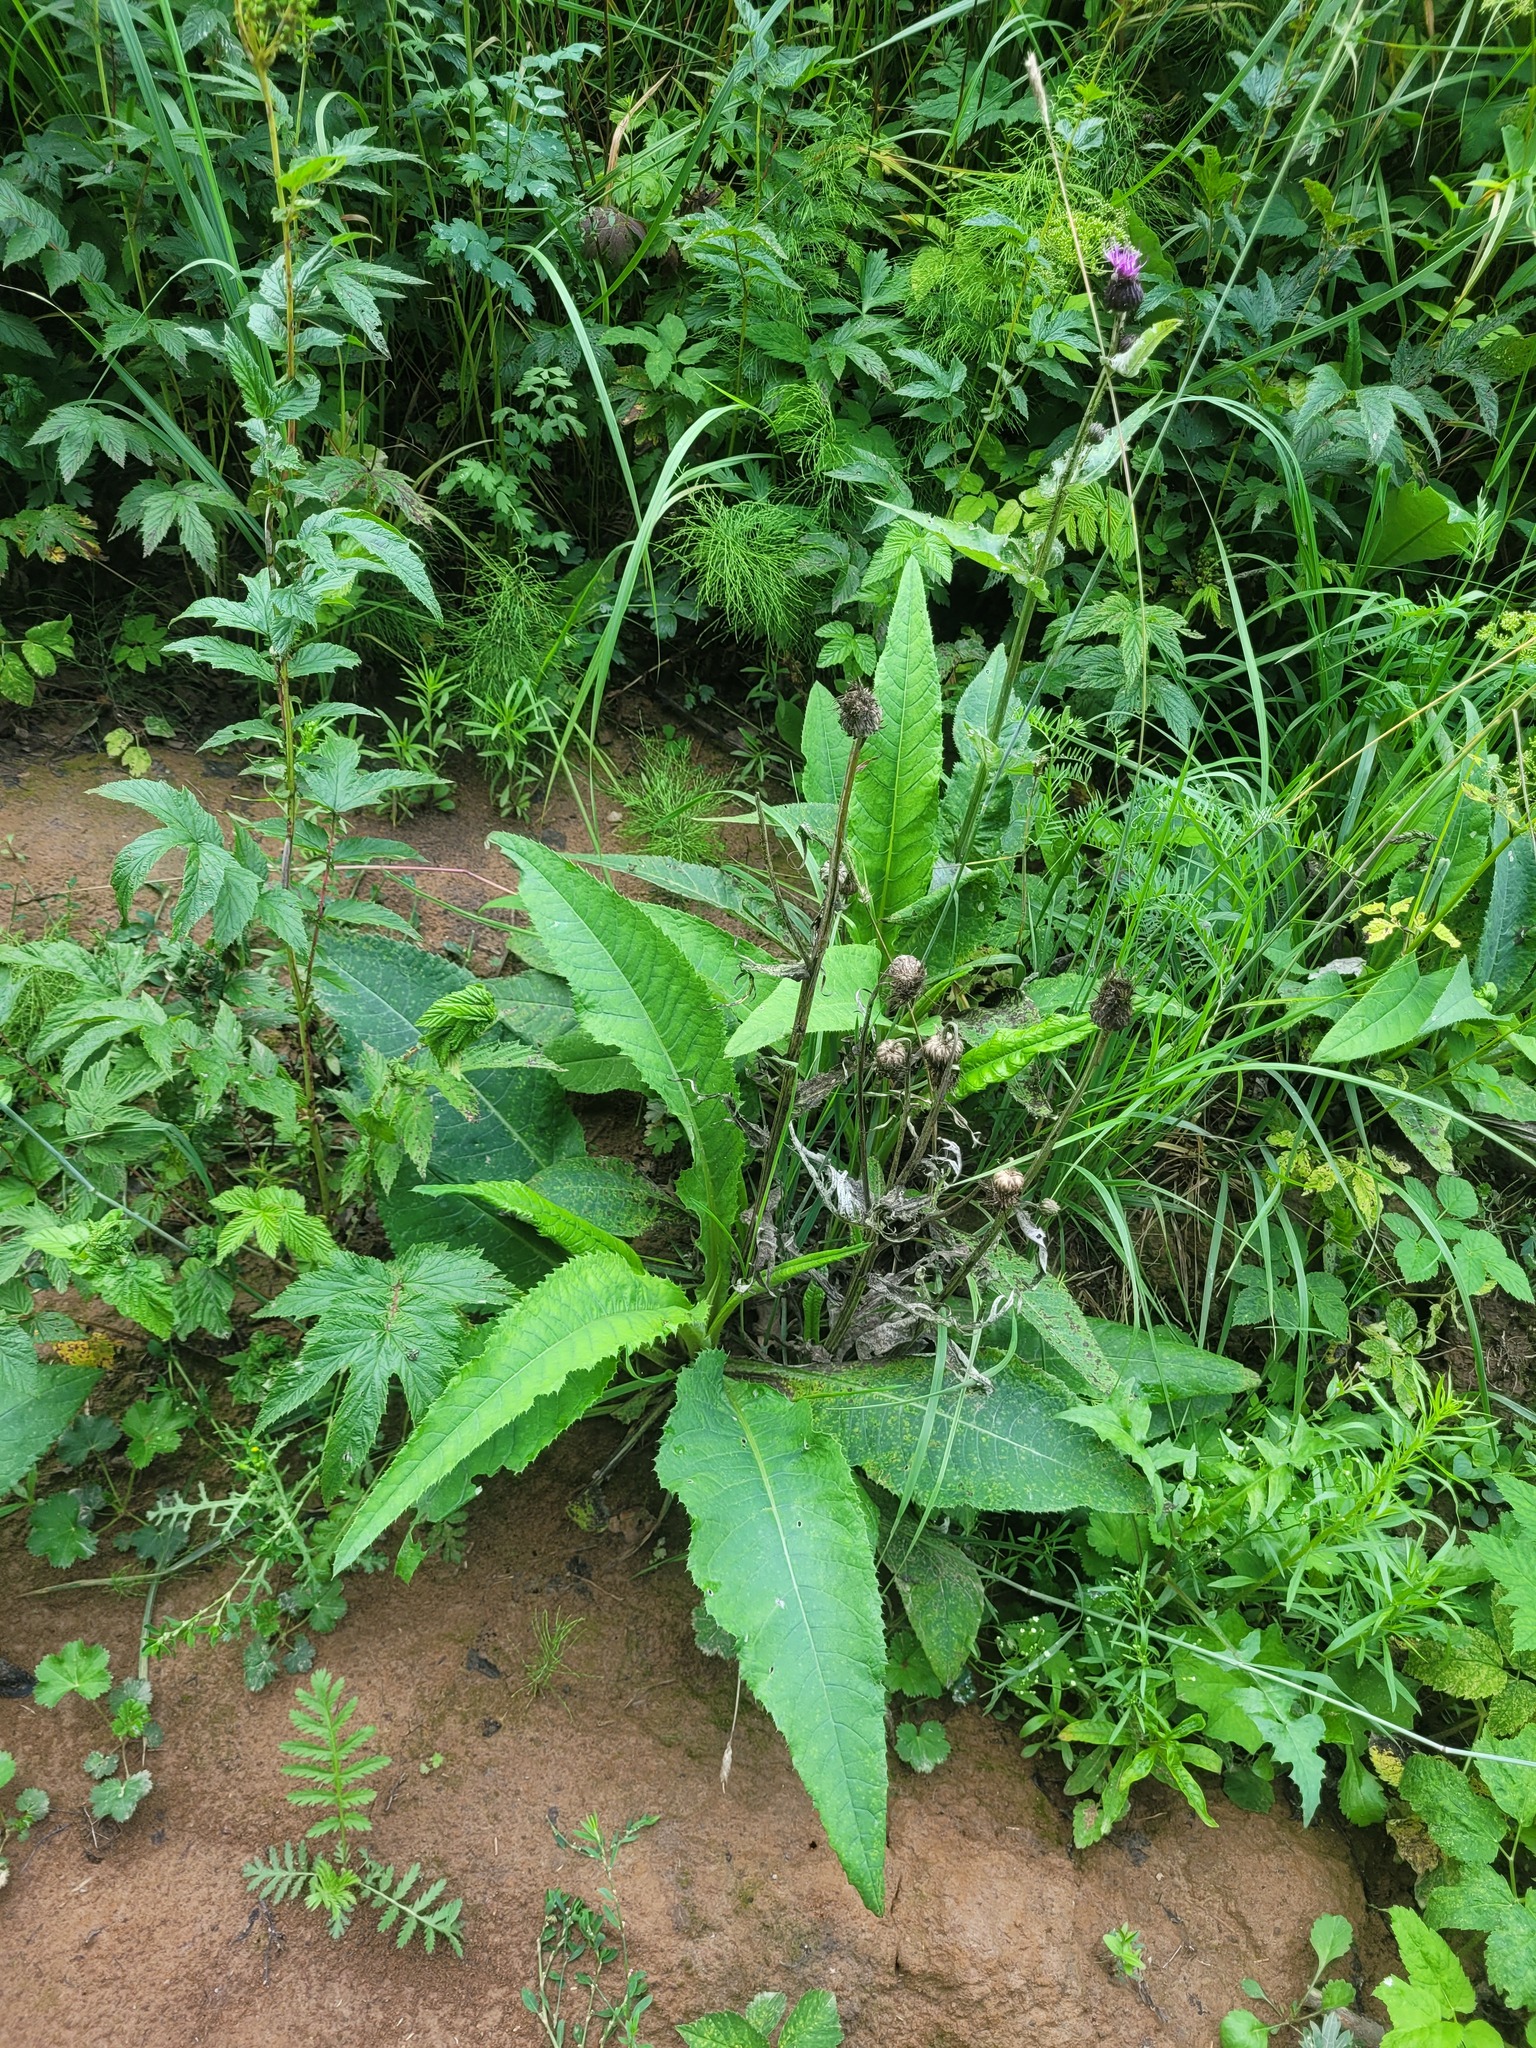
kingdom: Plantae
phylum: Tracheophyta
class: Magnoliopsida
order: Asterales
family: Asteraceae
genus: Cirsium
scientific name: Cirsium heterophyllum
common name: Melancholy thistle
